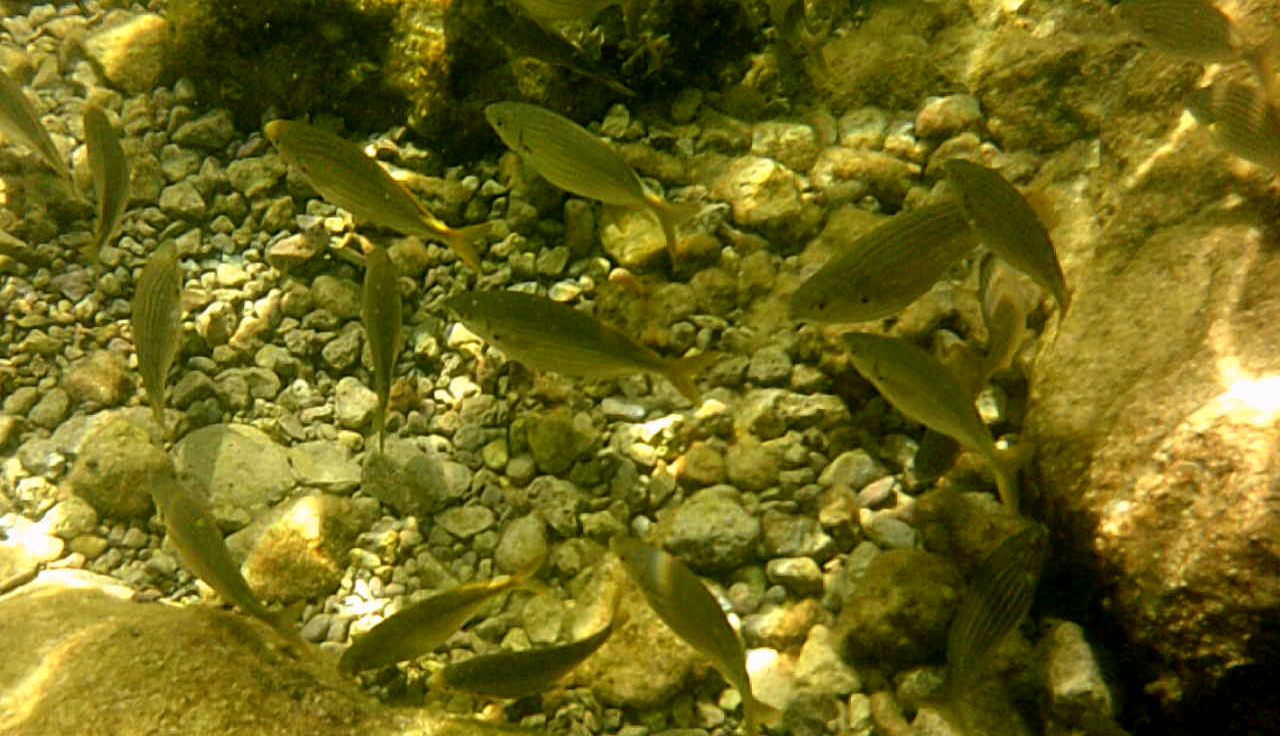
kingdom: Animalia
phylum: Chordata
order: Perciformes
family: Sparidae
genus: Sarpa
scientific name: Sarpa salpa
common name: Salema
